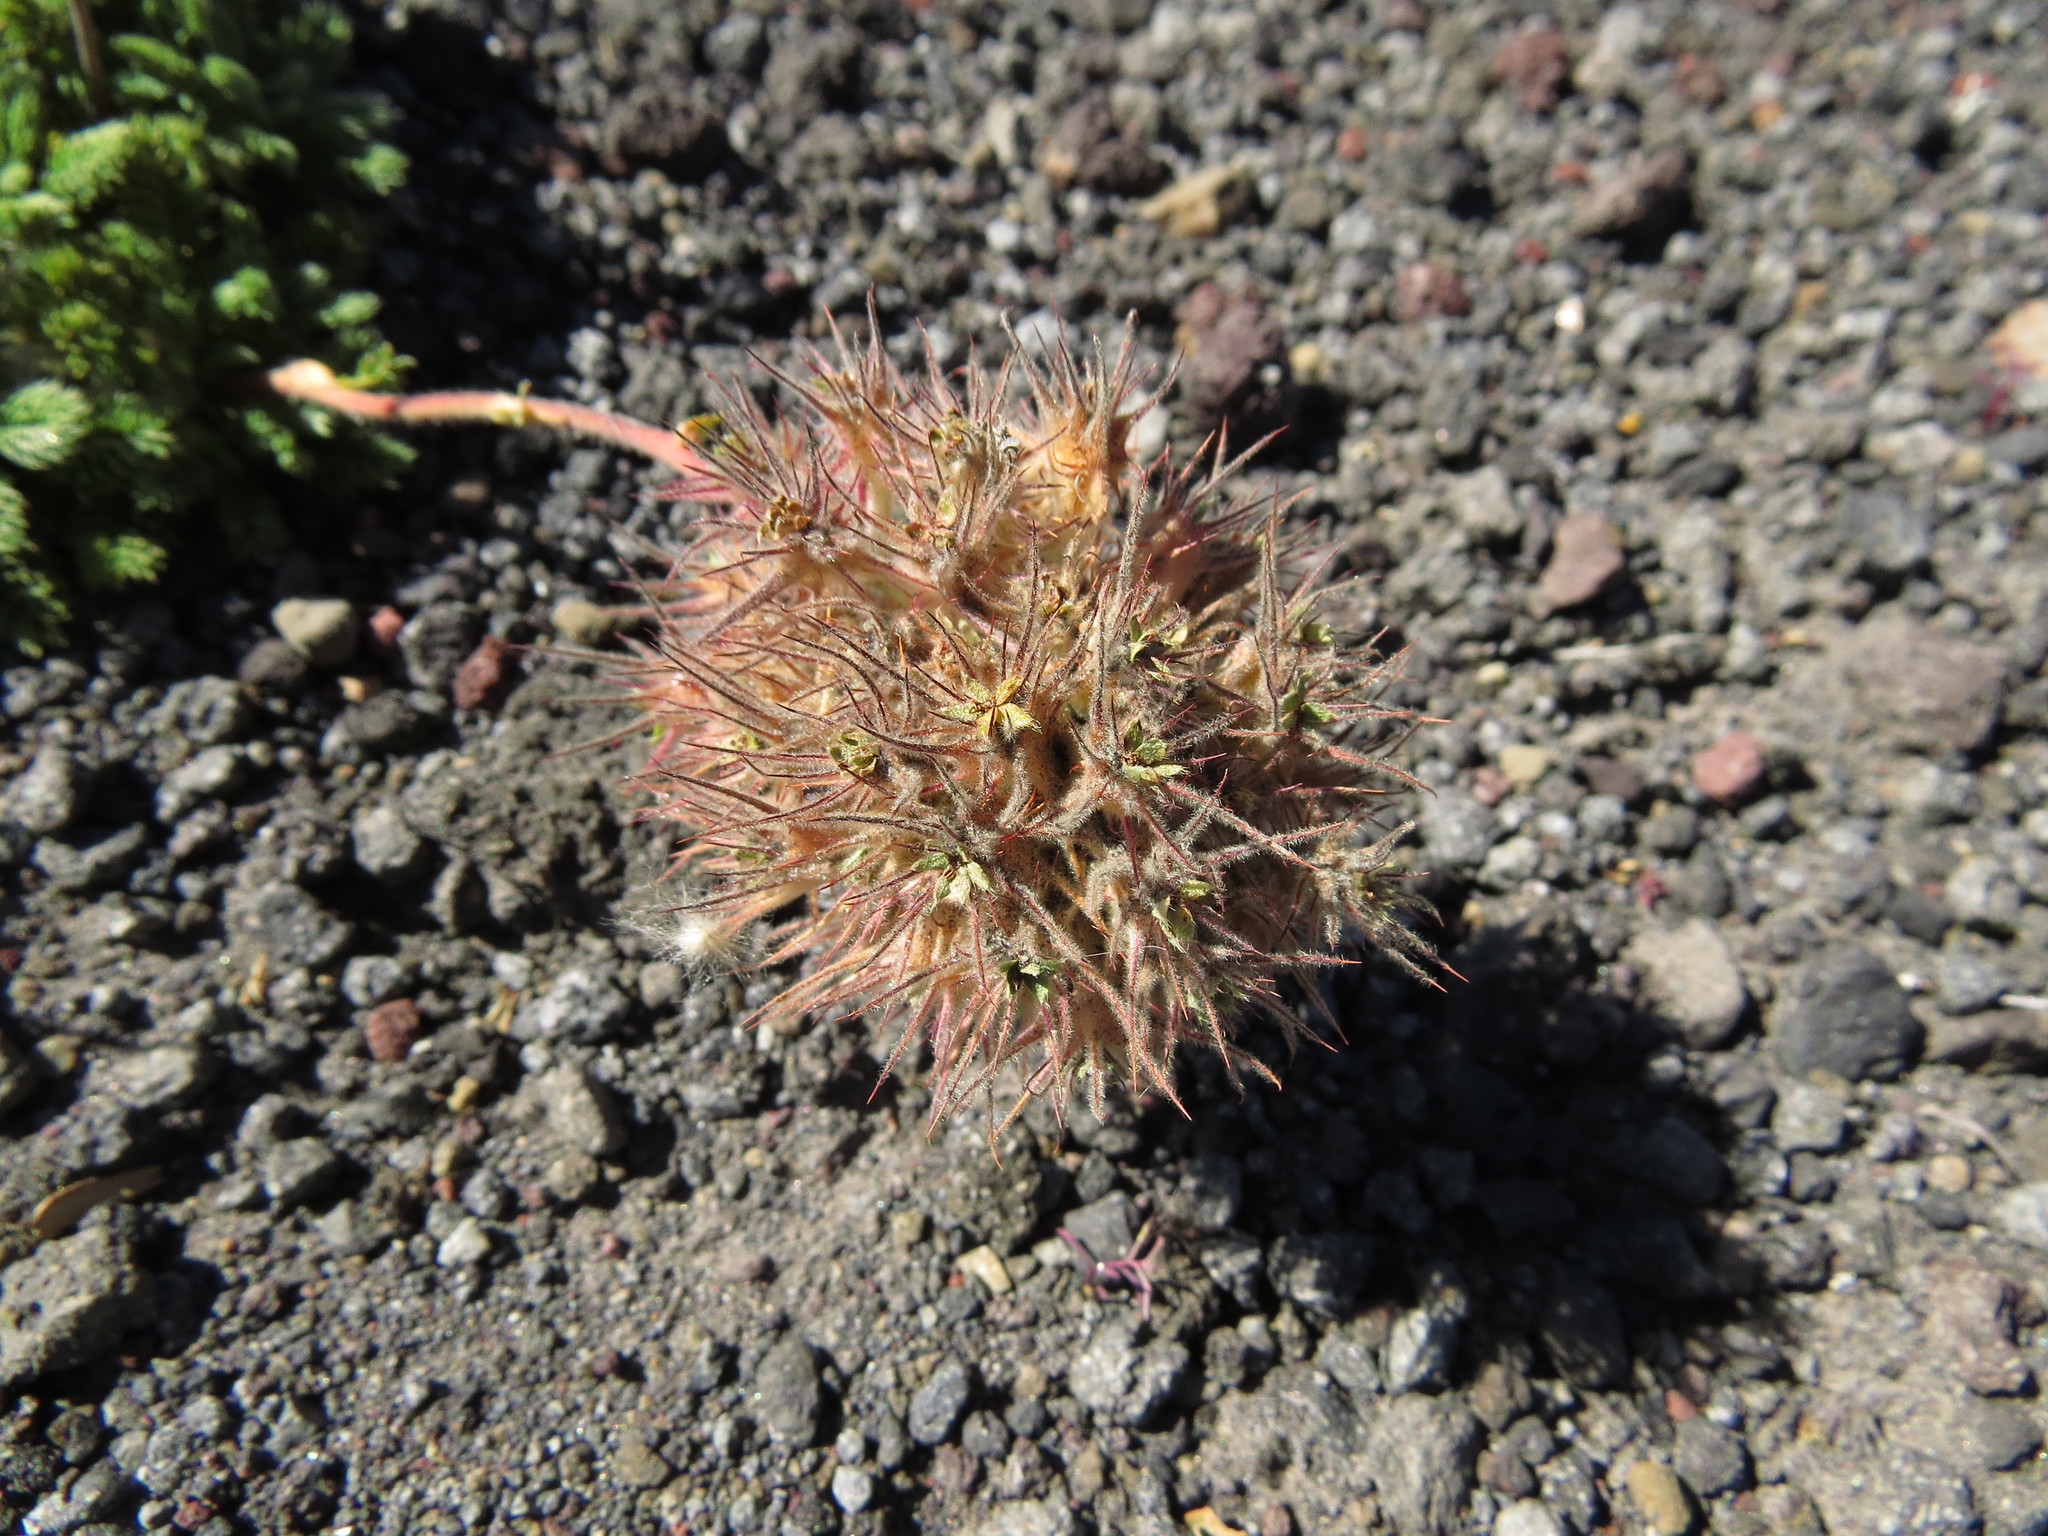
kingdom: Plantae
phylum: Tracheophyta
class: Magnoliopsida
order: Rosales
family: Rosaceae
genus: Acaena
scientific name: Acaena macrocephala
